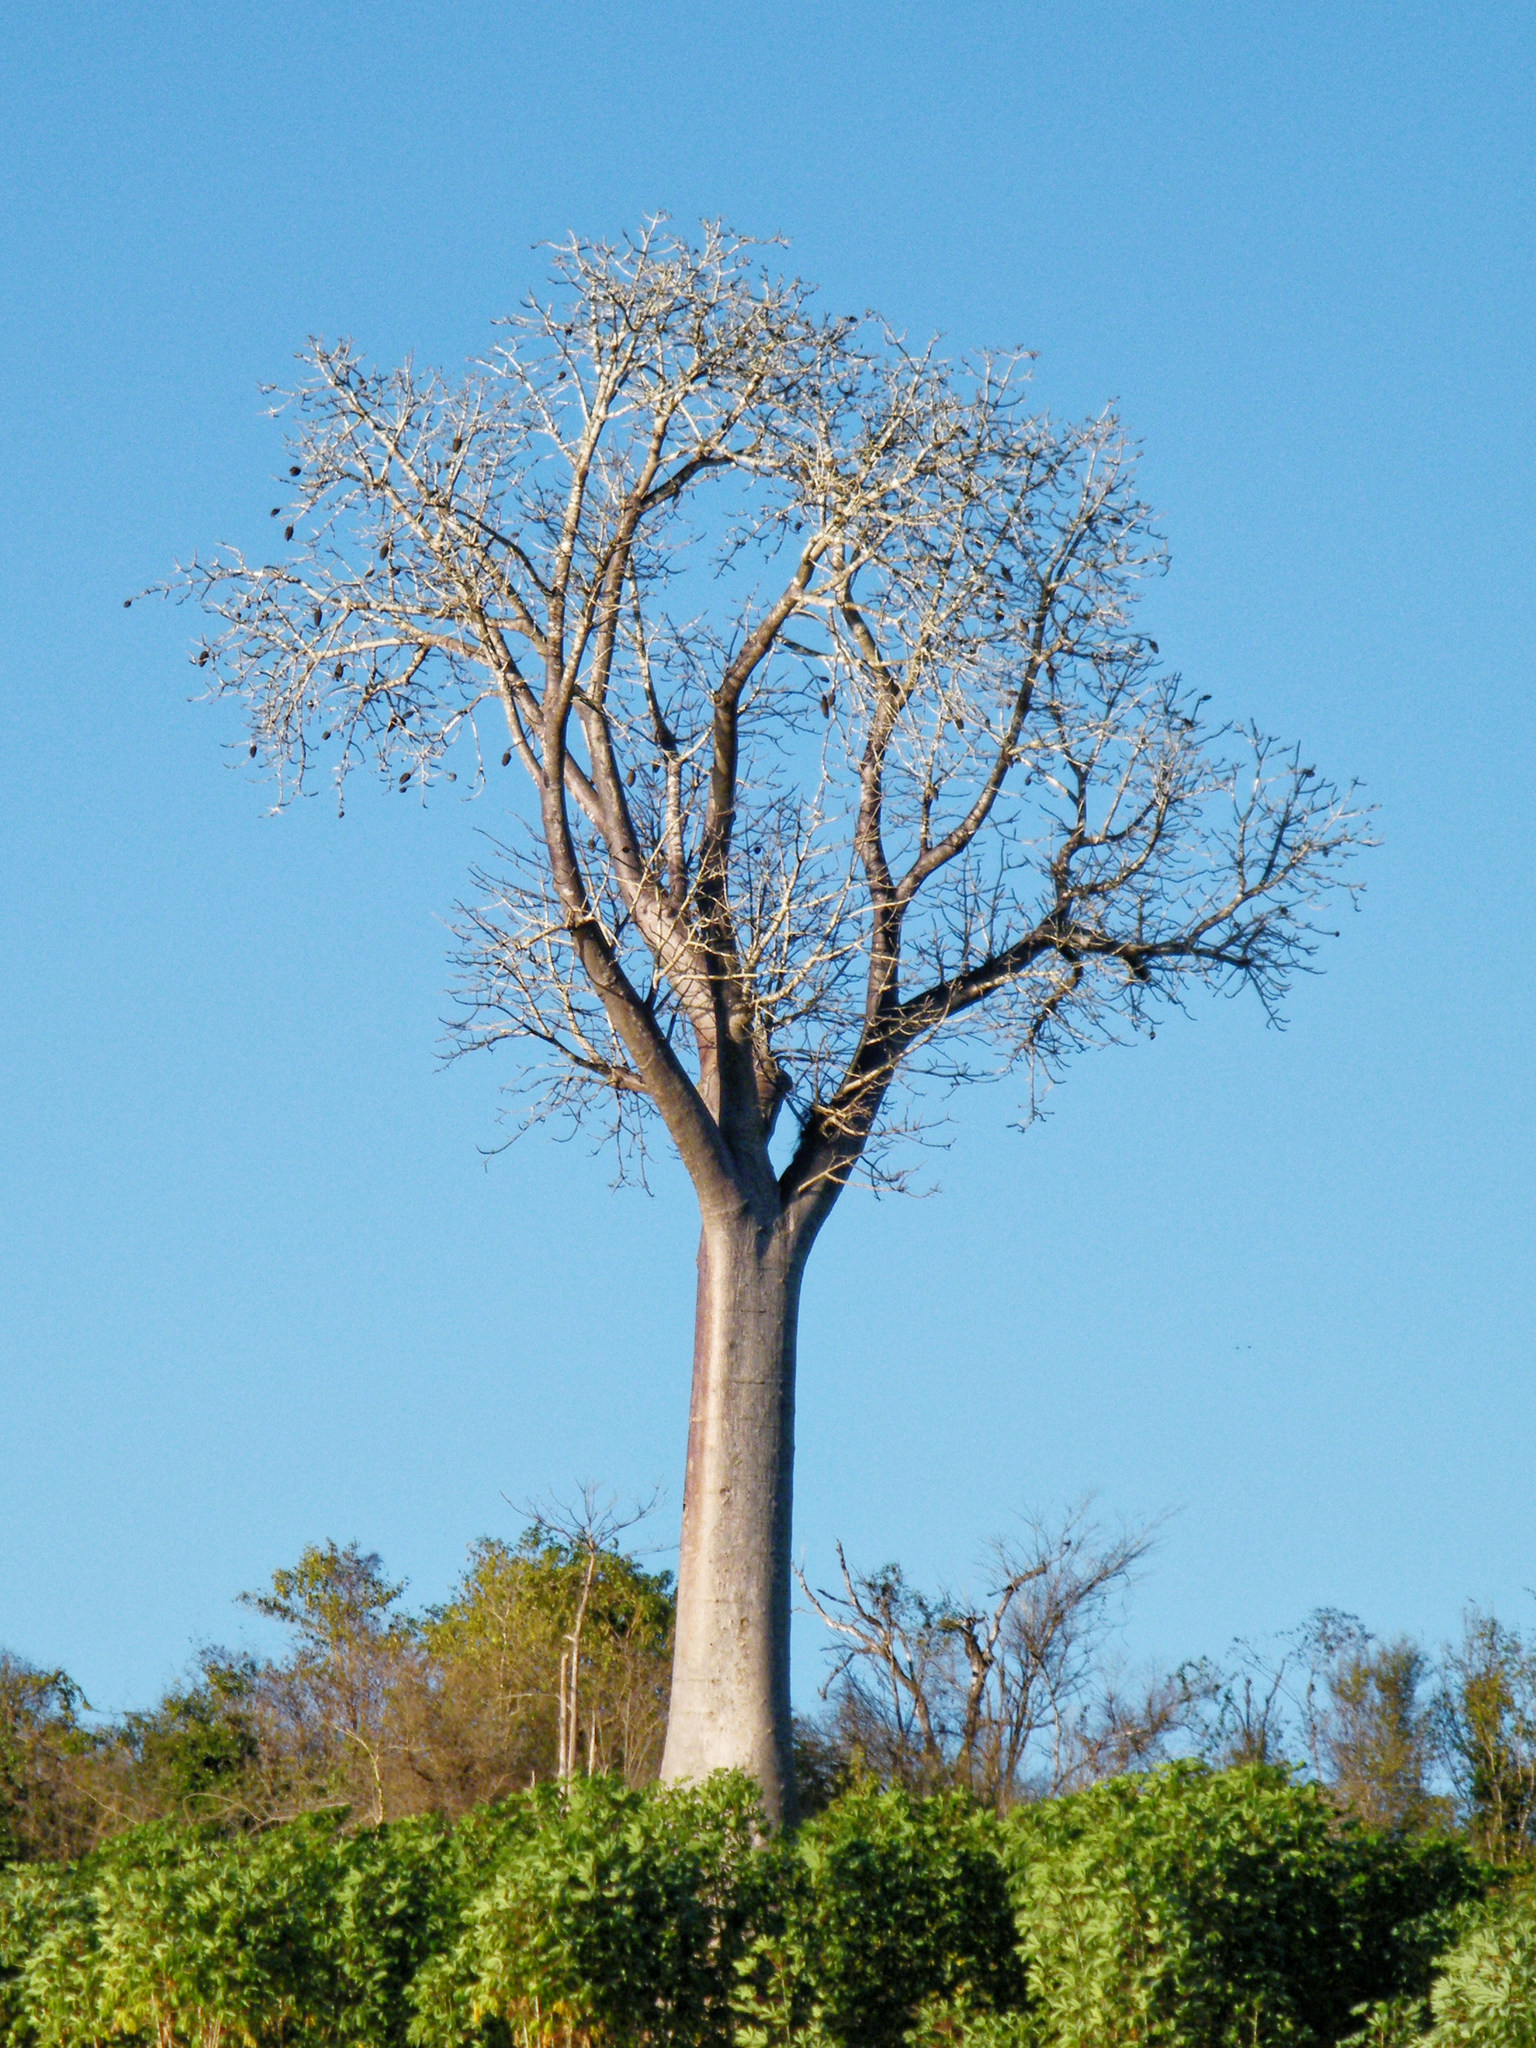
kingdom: Plantae
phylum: Tracheophyta
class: Magnoliopsida
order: Malvales
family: Malvaceae
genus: Adansonia
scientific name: Adansonia za
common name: Za baobab
